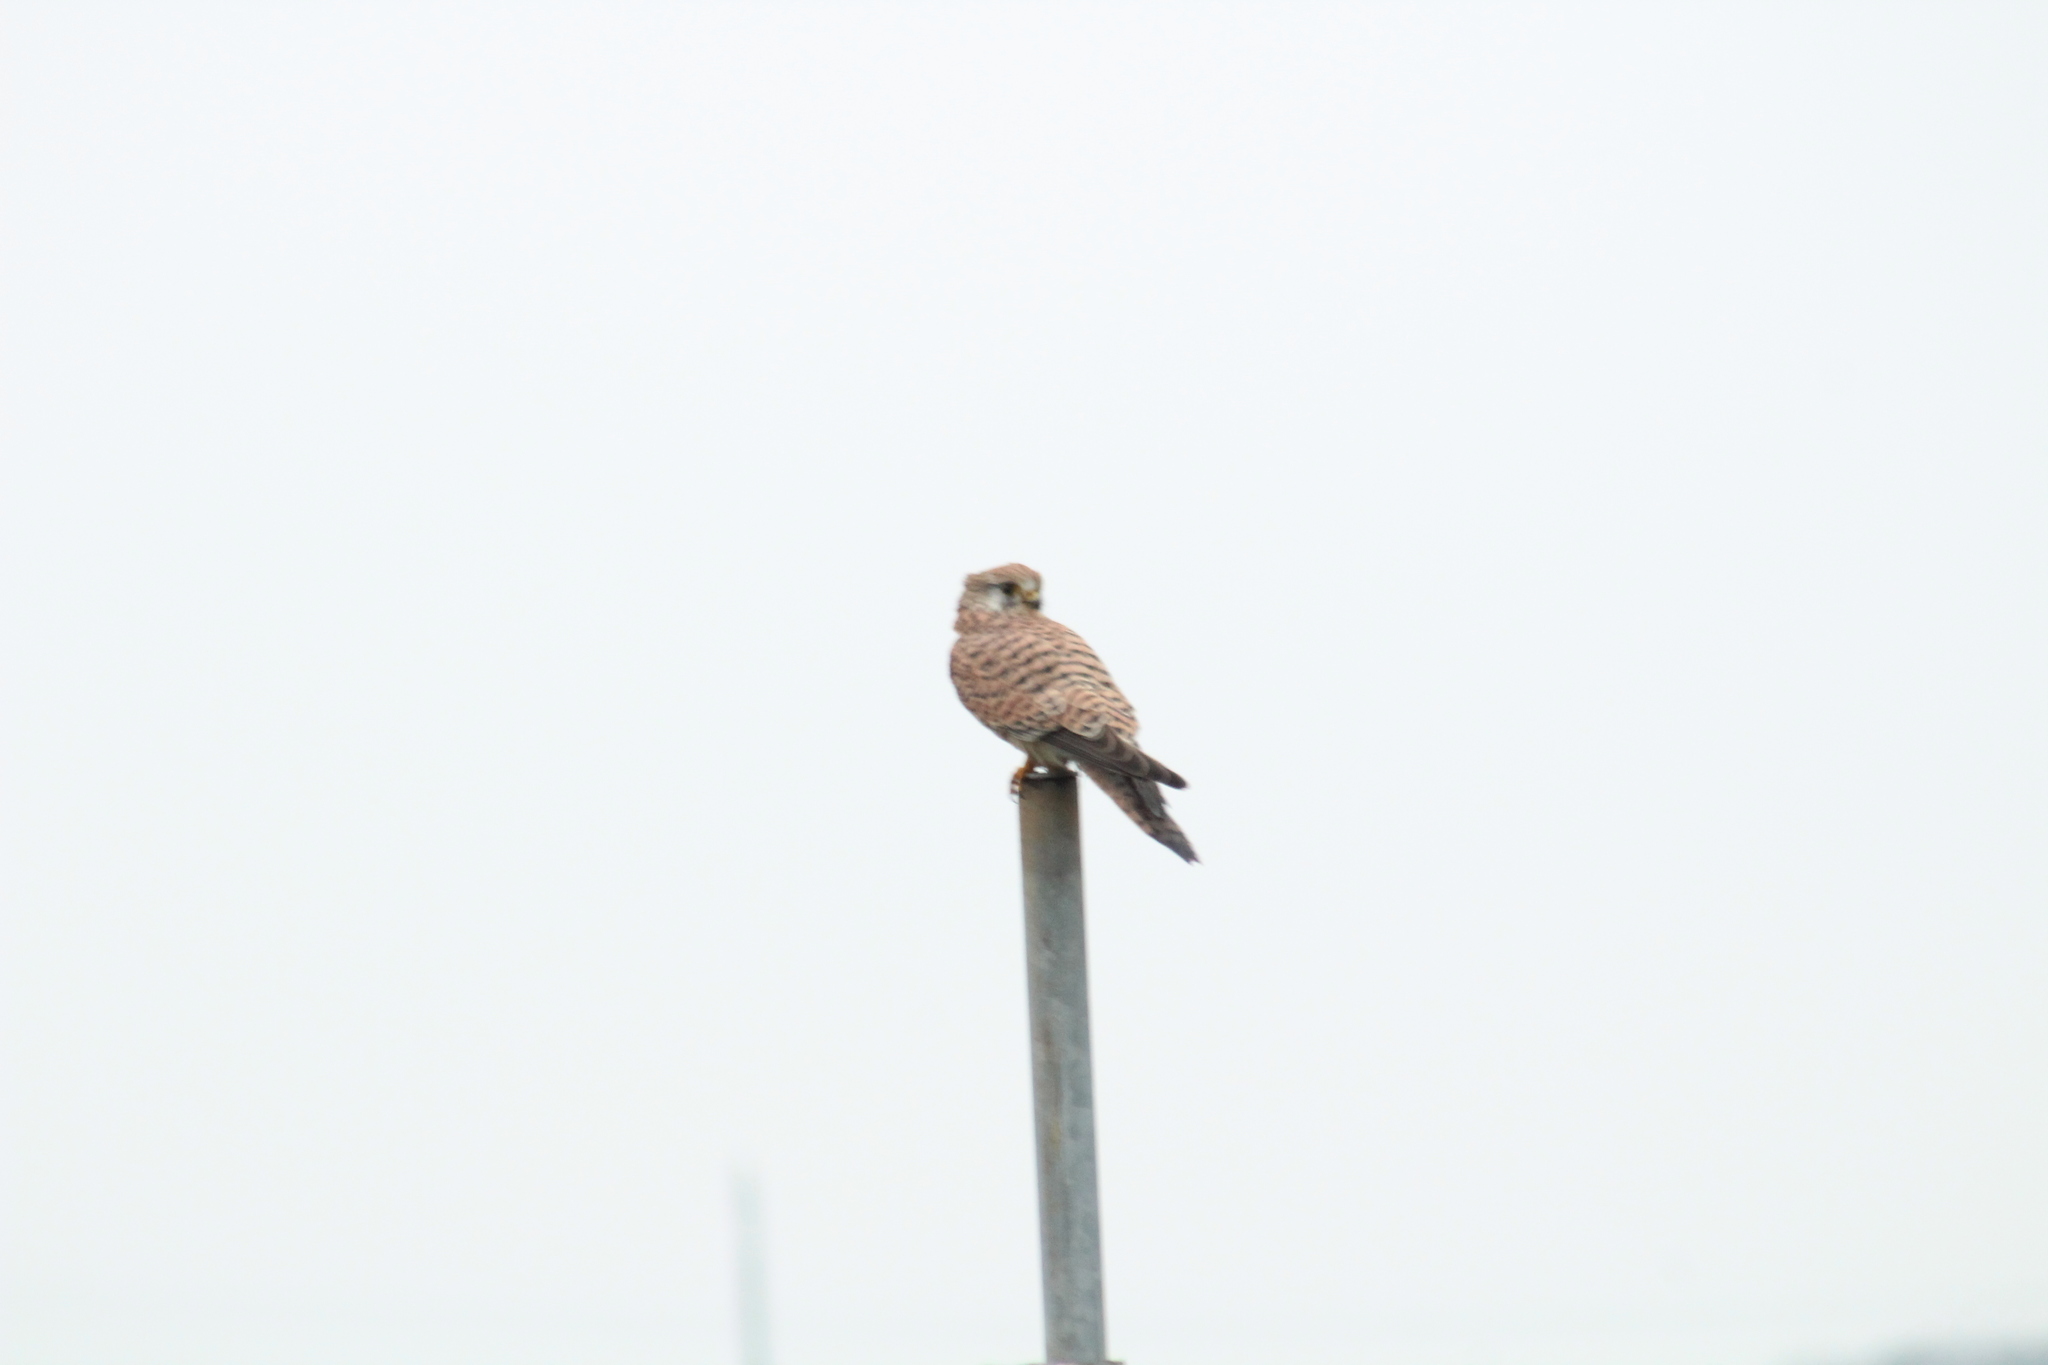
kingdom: Animalia
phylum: Chordata
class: Aves
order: Falconiformes
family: Falconidae
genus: Falco
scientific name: Falco tinnunculus
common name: Common kestrel
